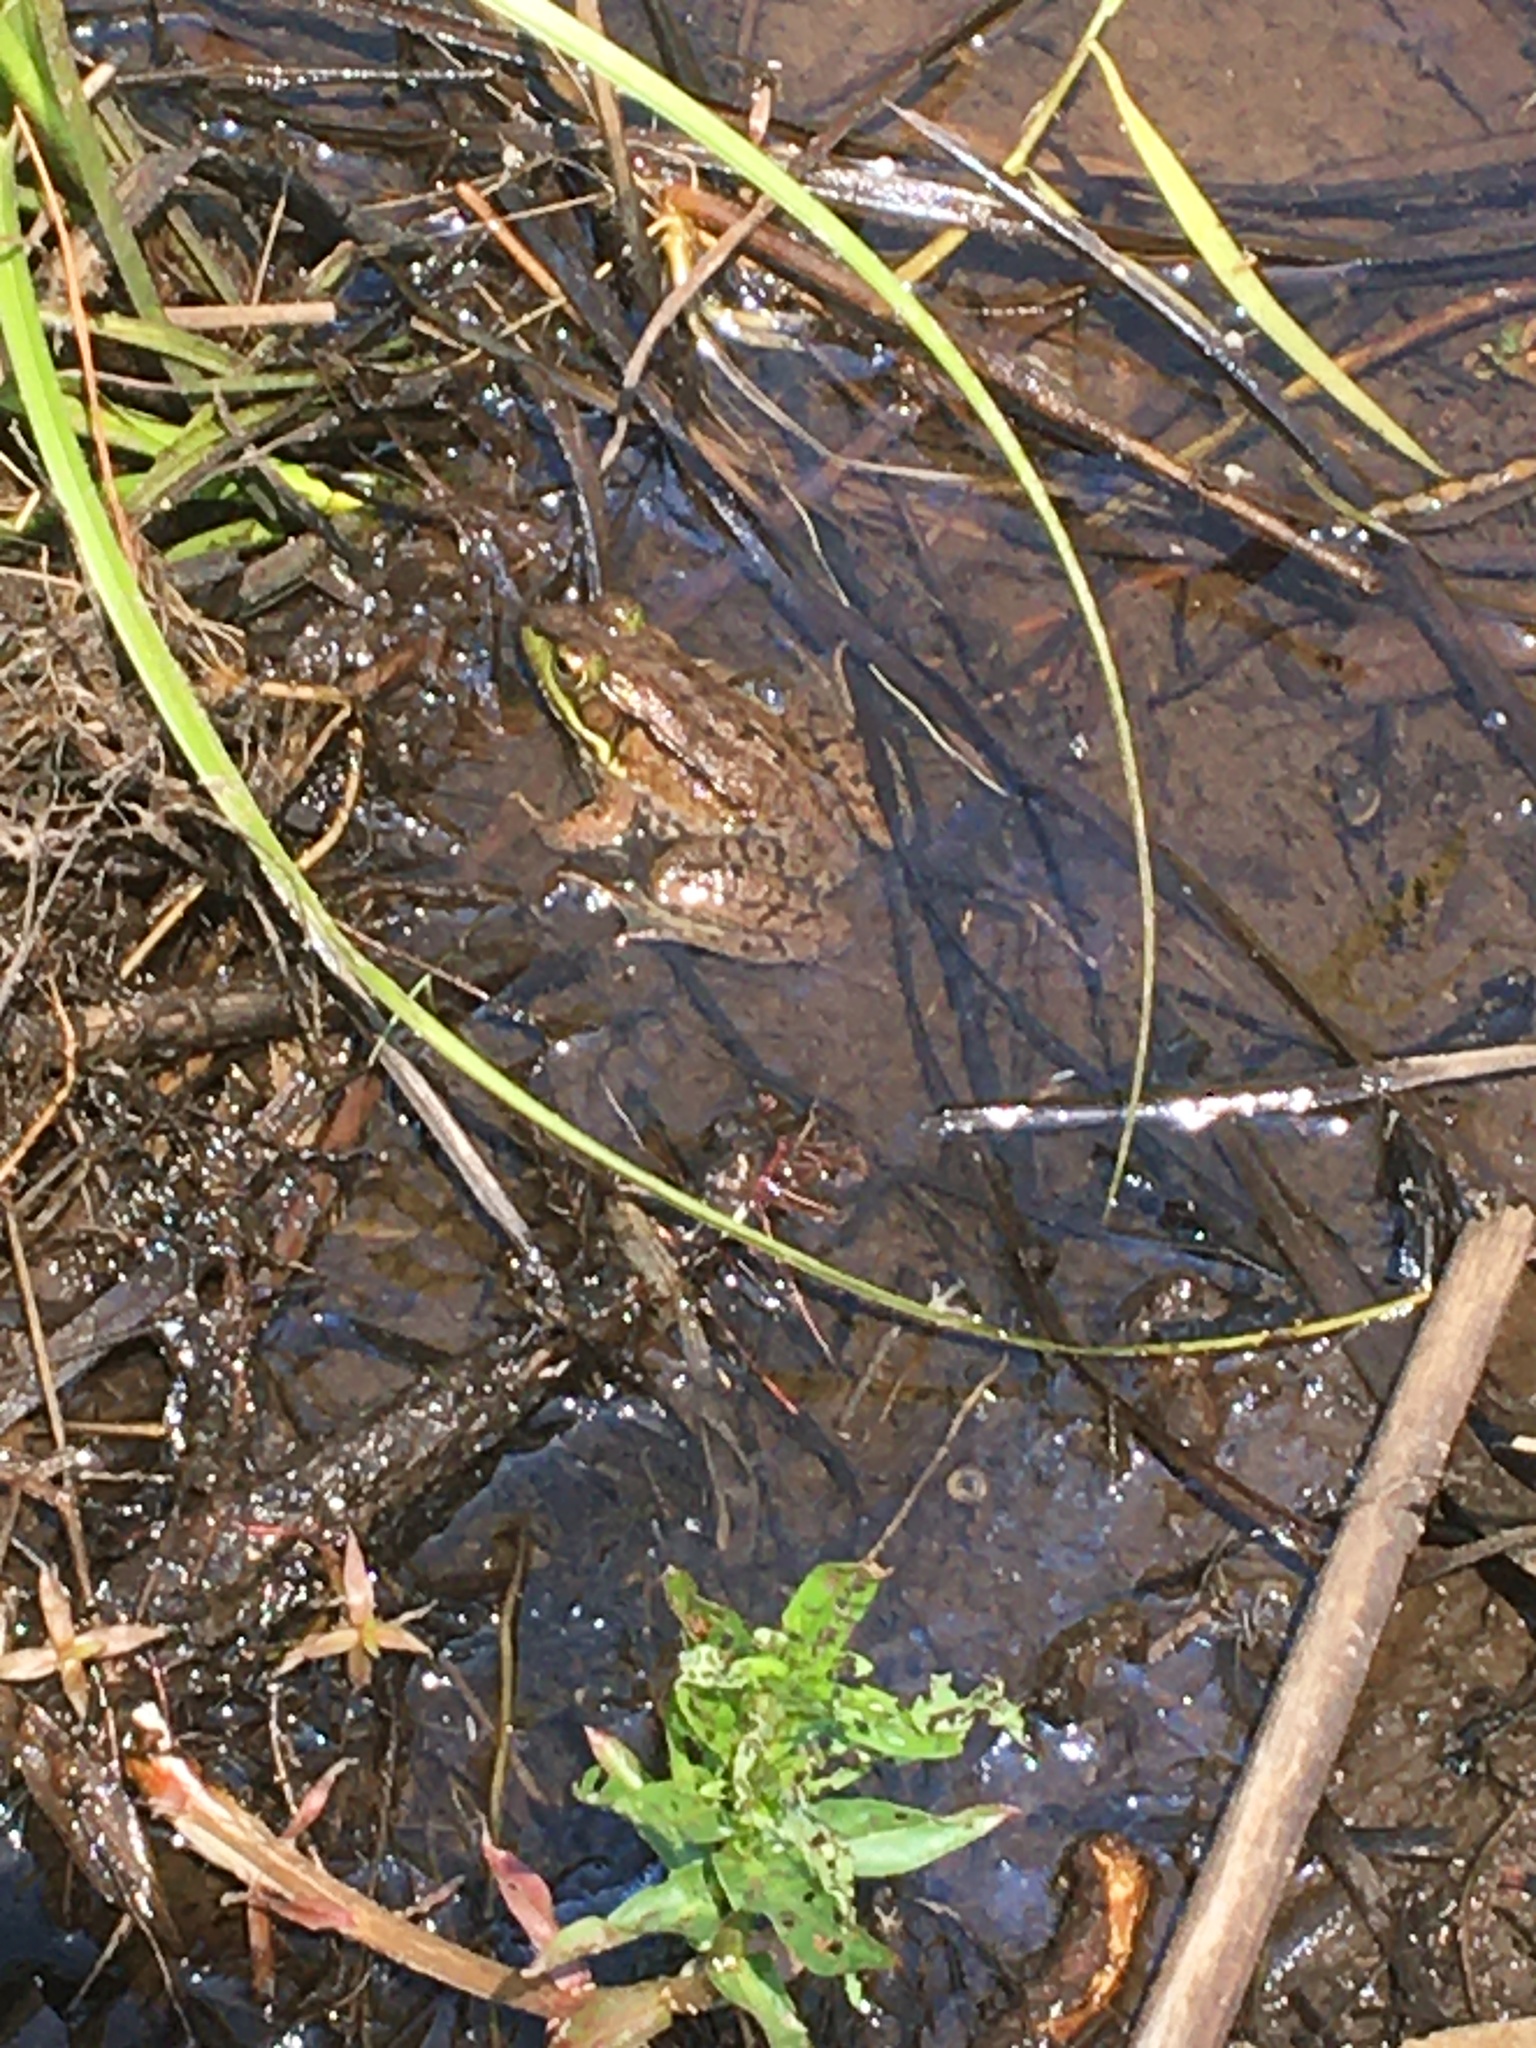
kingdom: Animalia
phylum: Chordata
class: Amphibia
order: Anura
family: Ranidae
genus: Lithobates
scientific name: Lithobates clamitans
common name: Green frog
